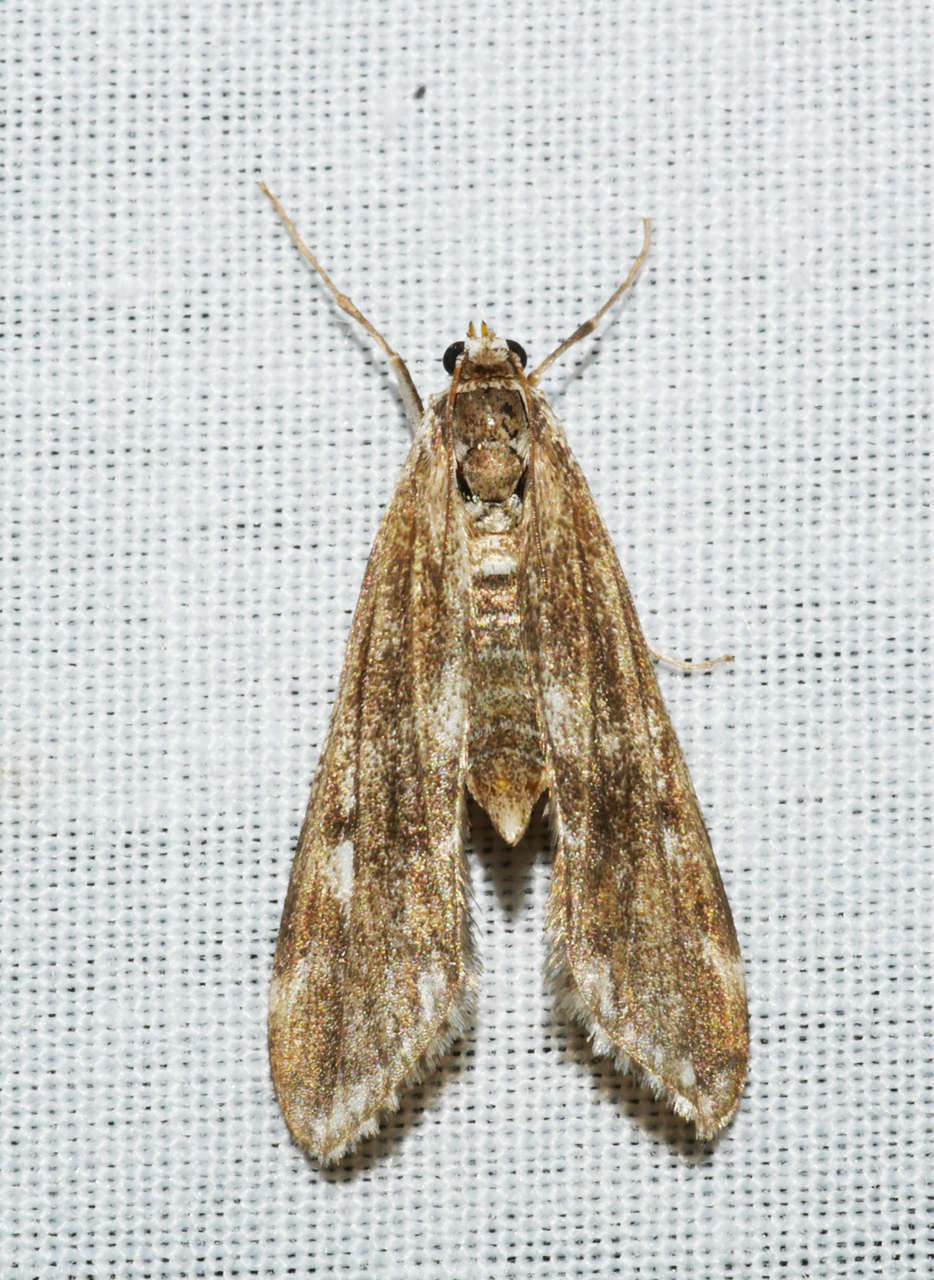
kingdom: Animalia
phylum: Arthropoda
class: Insecta
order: Lepidoptera
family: Crambidae
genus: Hygraula
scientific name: Hygraula nitens
